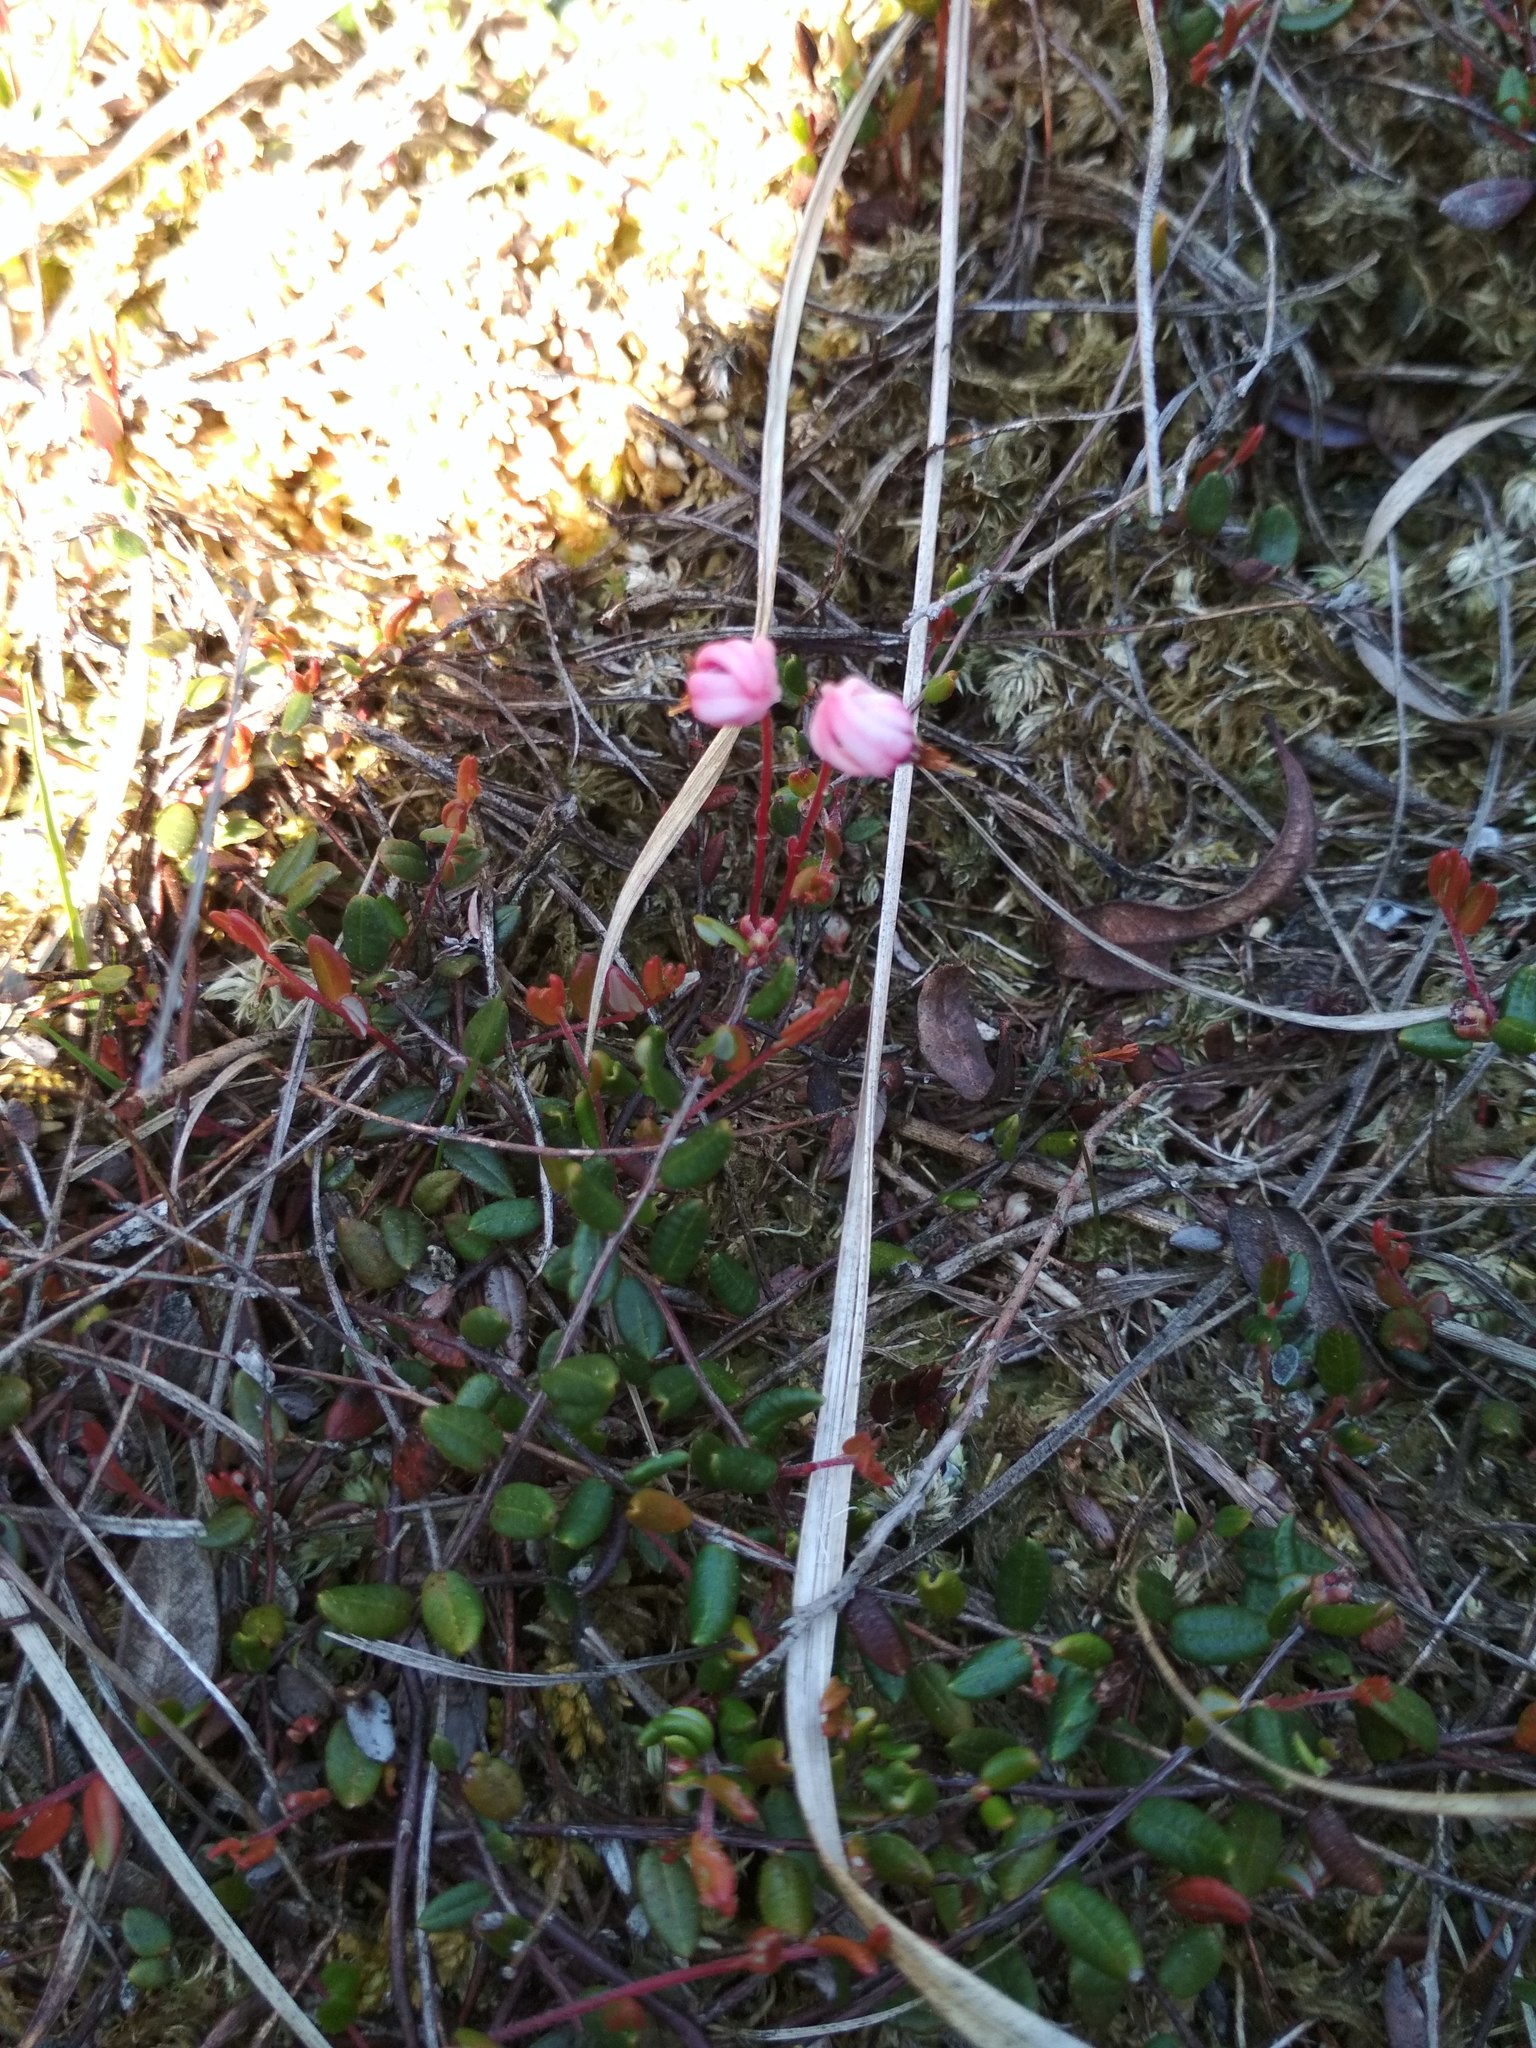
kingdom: Plantae
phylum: Tracheophyta
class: Magnoliopsida
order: Ericales
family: Ericaceae
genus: Vaccinium
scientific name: Vaccinium oxycoccos
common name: Cranberry
